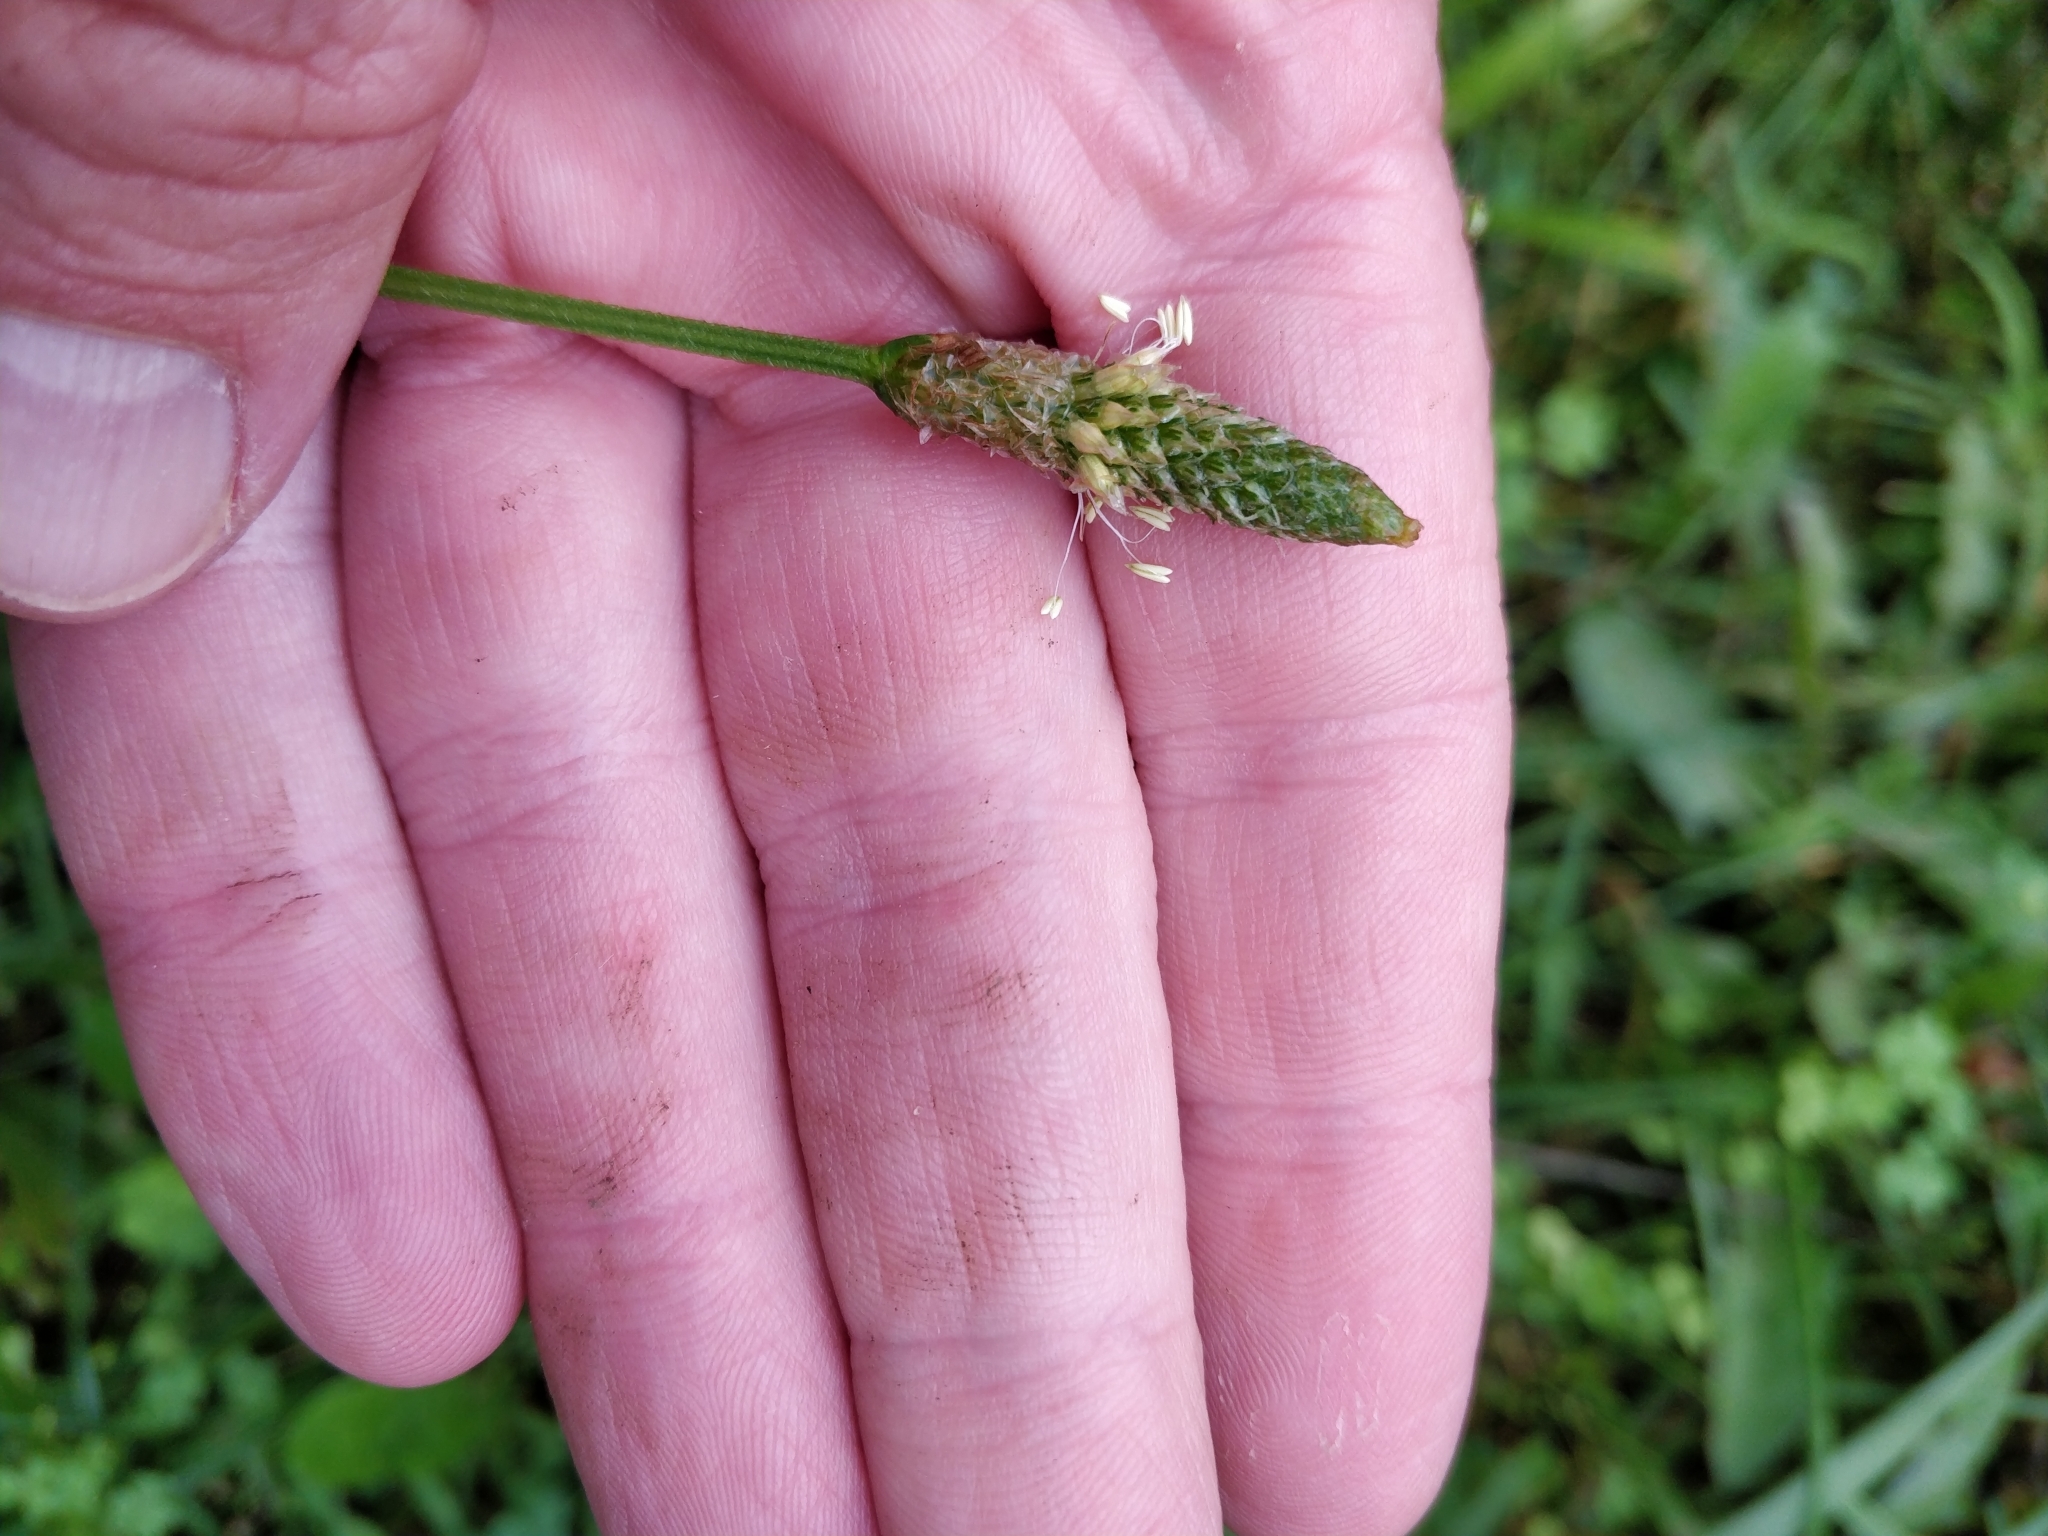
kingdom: Plantae
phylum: Tracheophyta
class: Magnoliopsida
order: Lamiales
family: Plantaginaceae
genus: Plantago
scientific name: Plantago lanceolata
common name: Ribwort plantain
